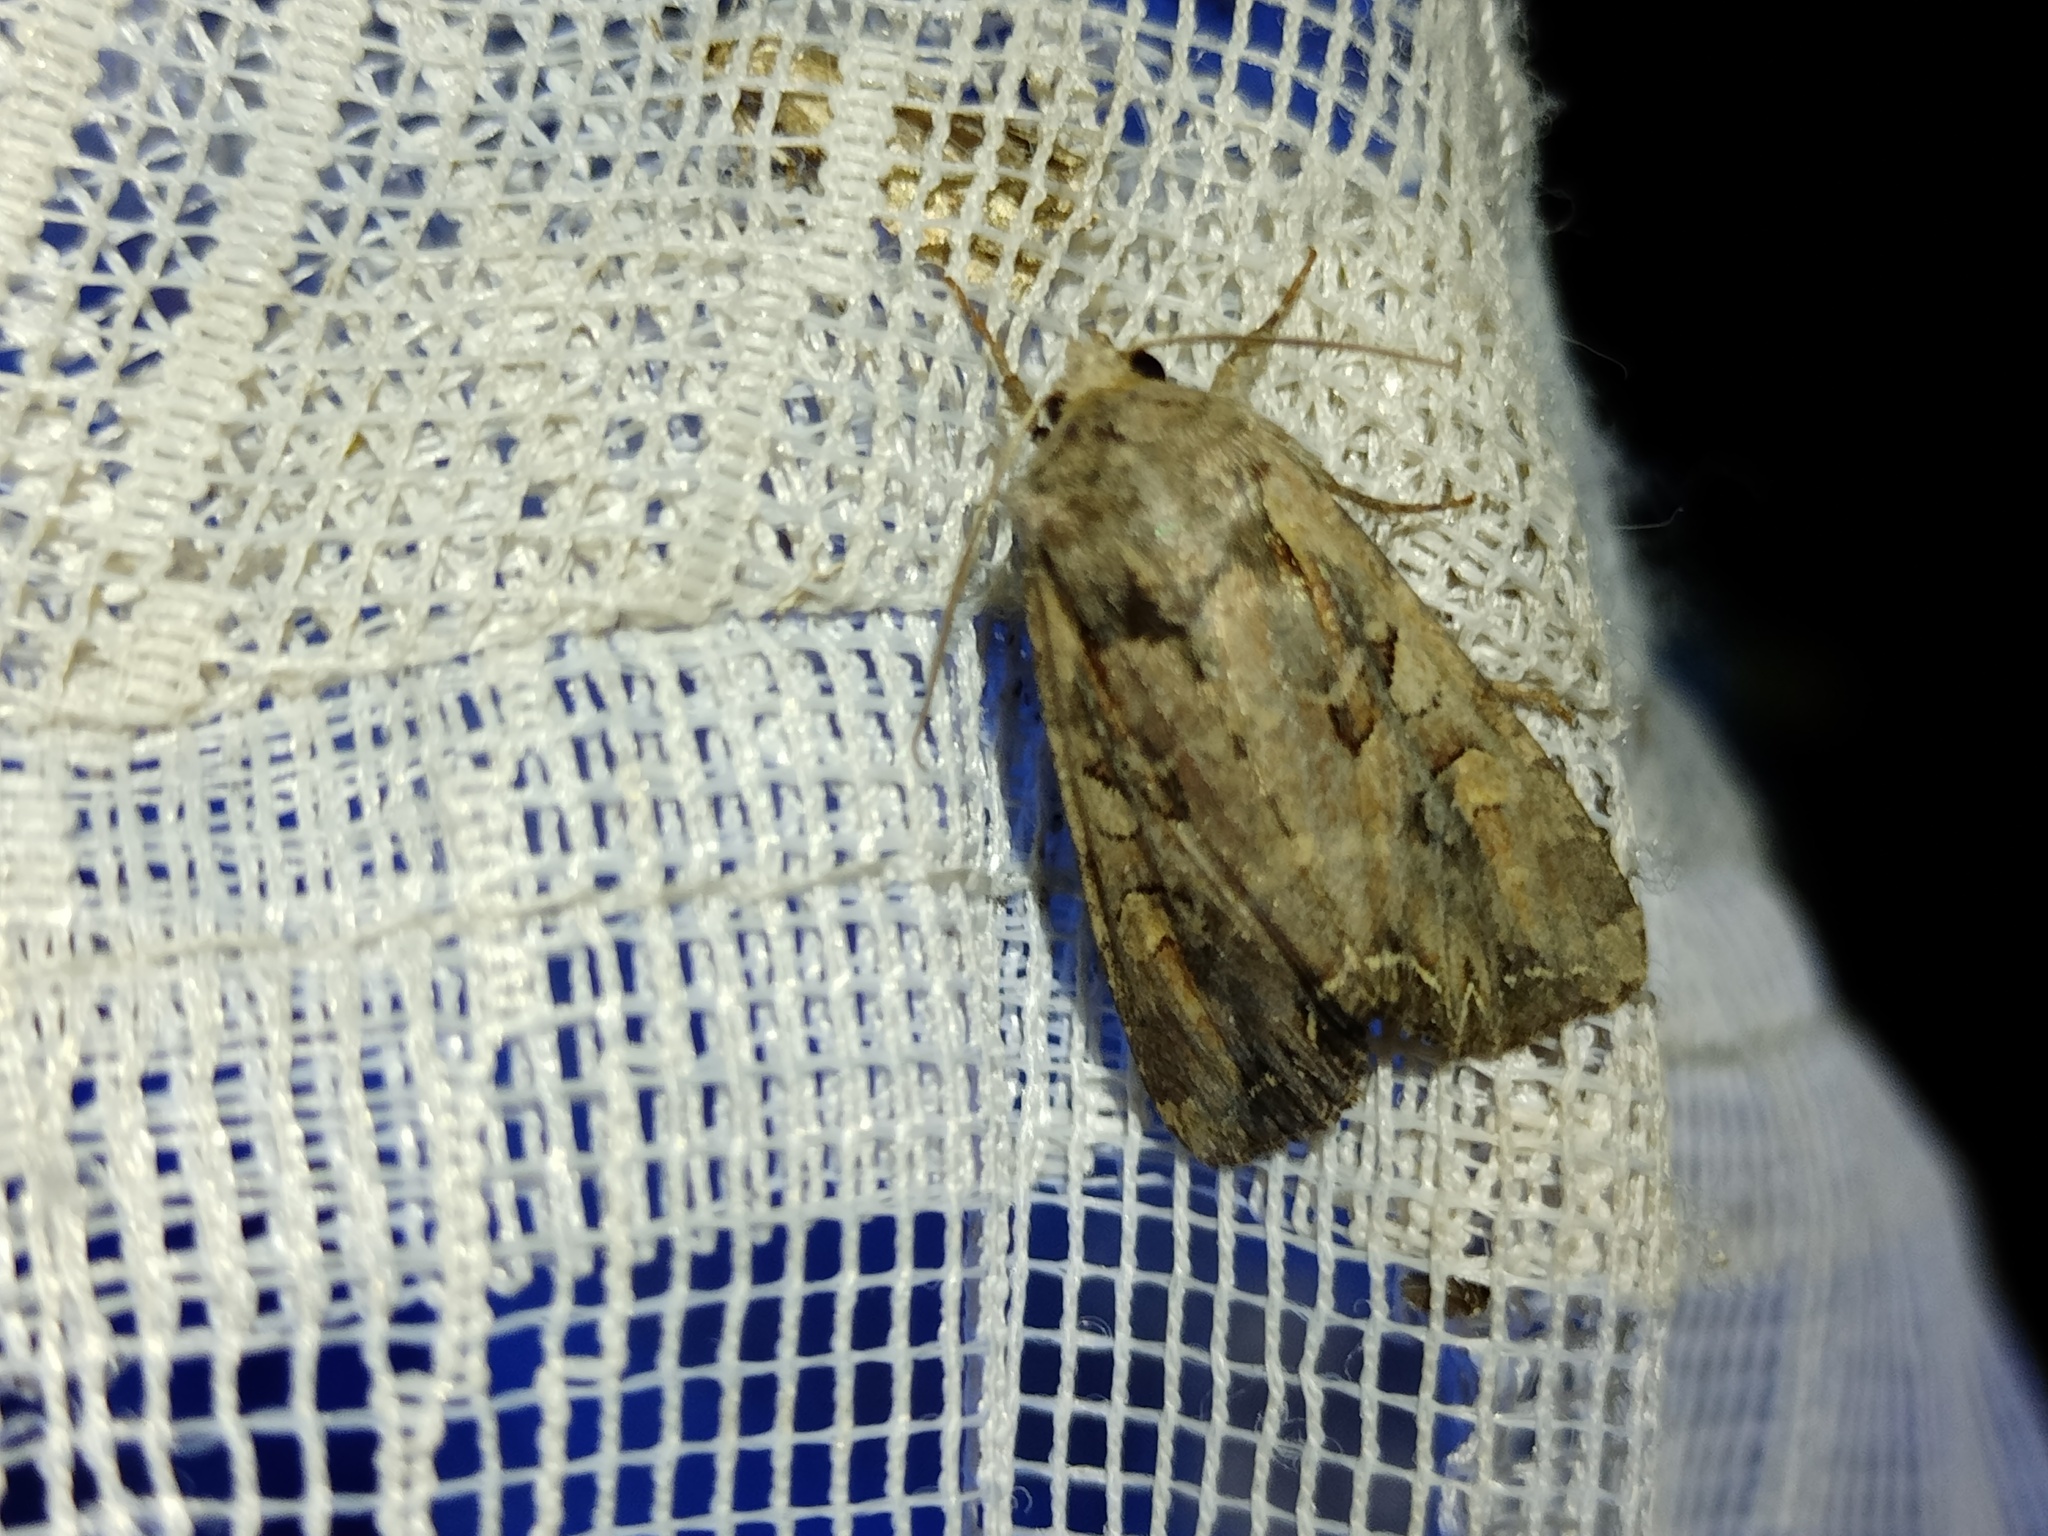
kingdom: Animalia
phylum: Arthropoda
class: Insecta
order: Lepidoptera
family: Noctuidae
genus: Lacanobia
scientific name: Lacanobia suasa
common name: Dog's tooth
